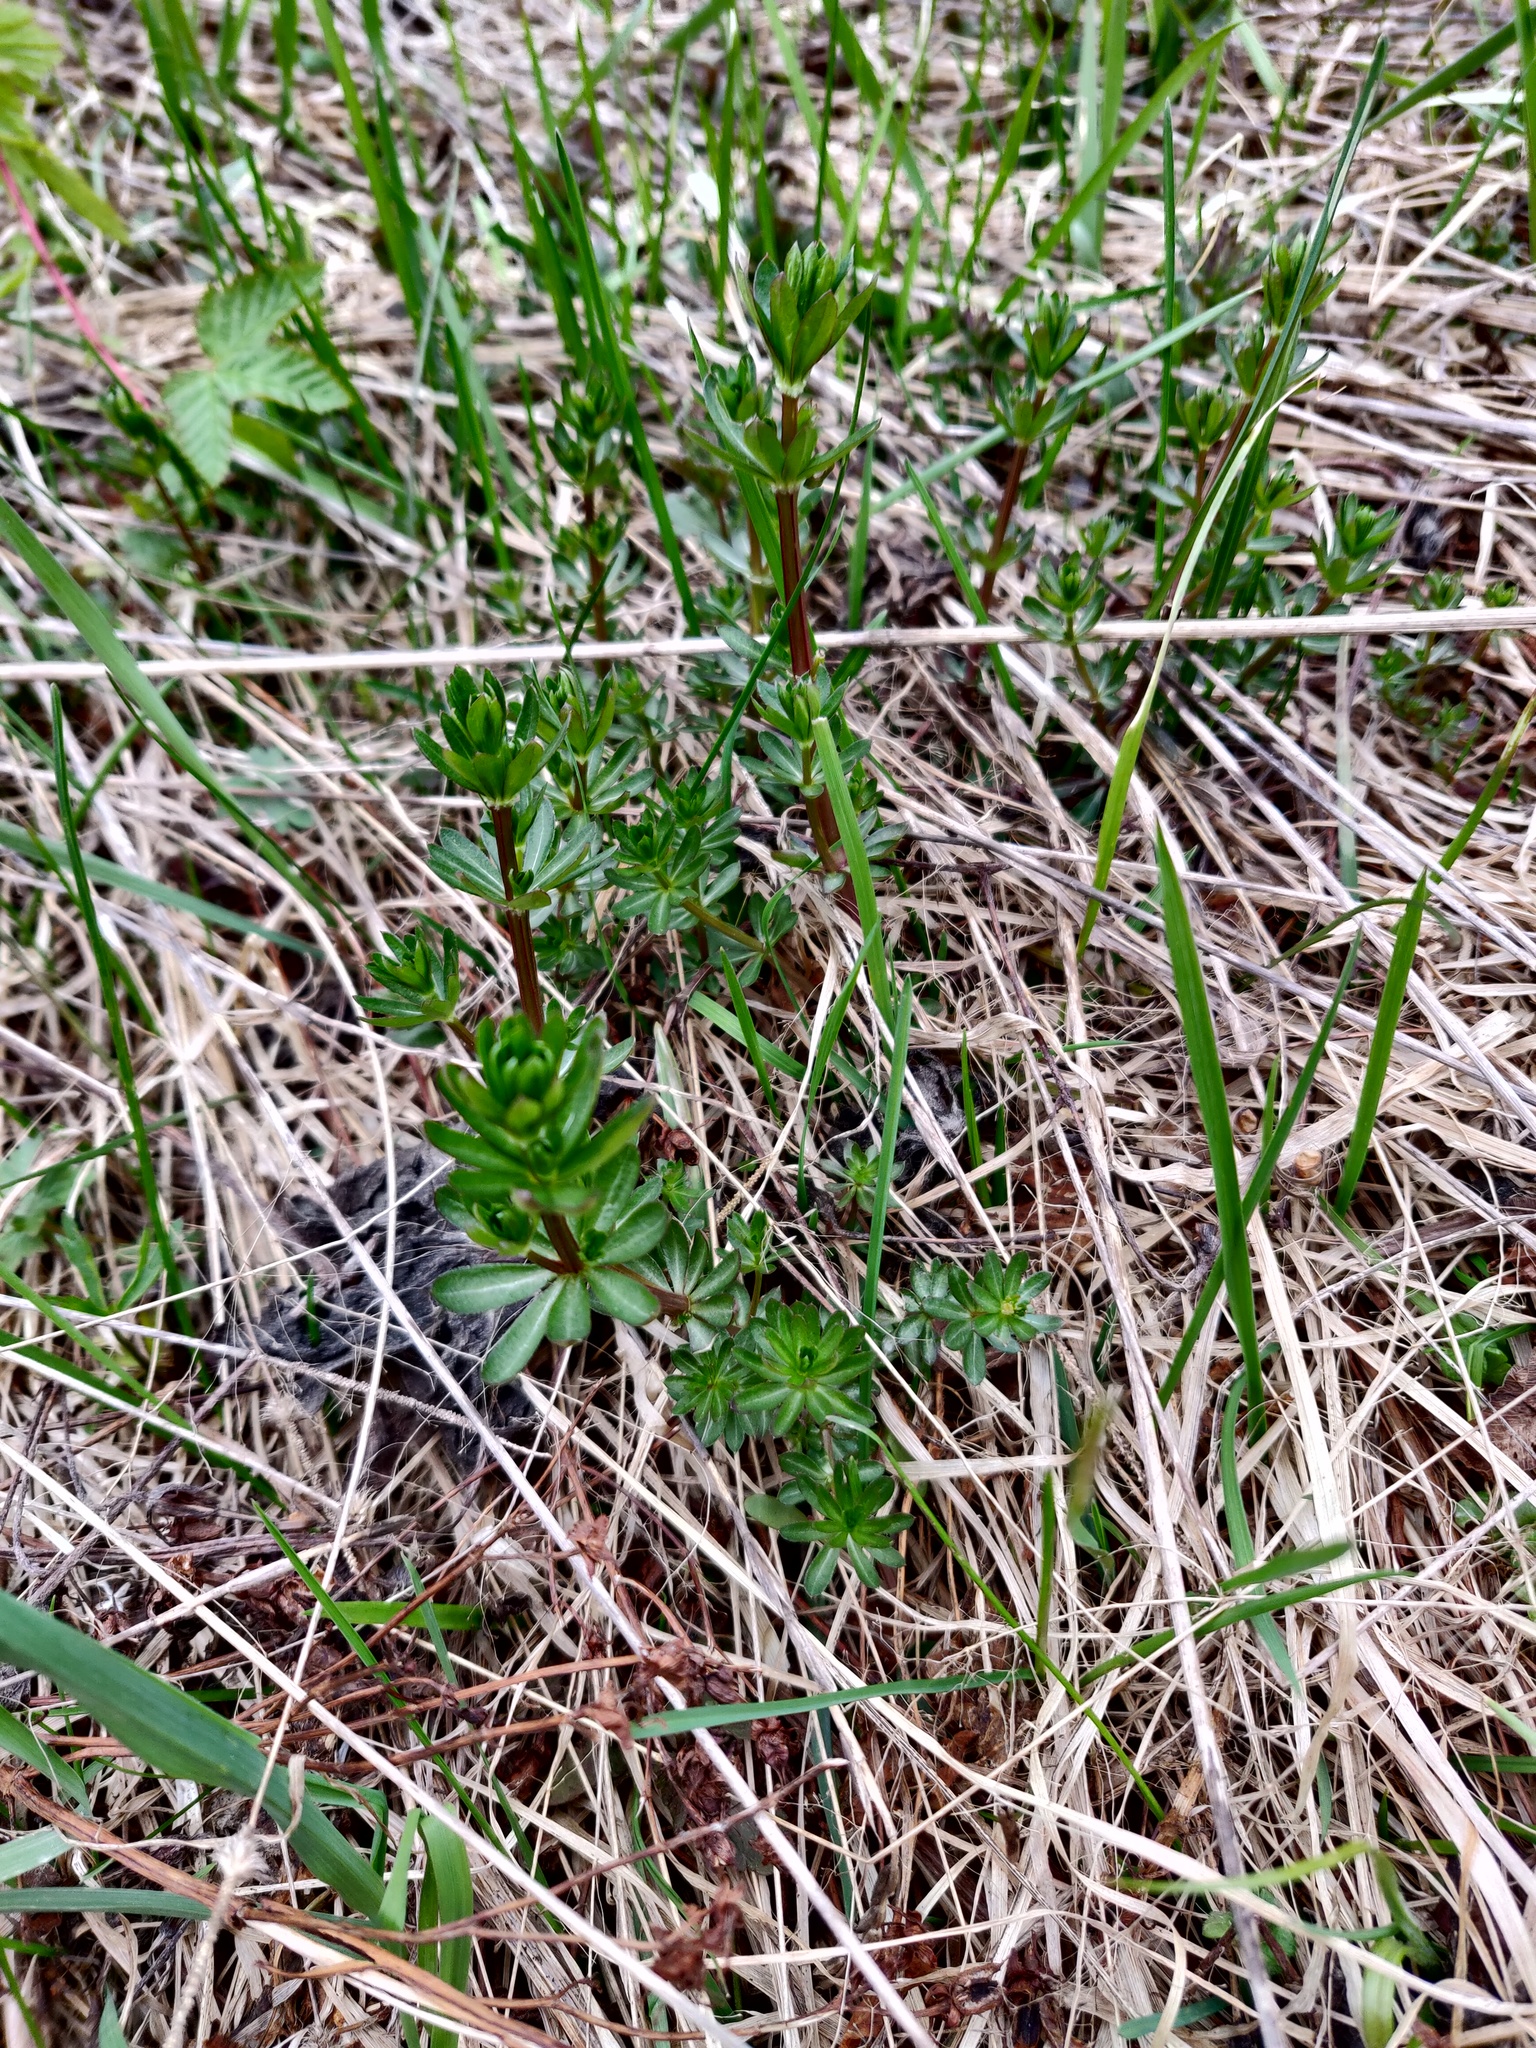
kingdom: Plantae
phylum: Tracheophyta
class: Magnoliopsida
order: Gentianales
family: Rubiaceae
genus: Galium
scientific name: Galium mollugo
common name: Hedge bedstraw
